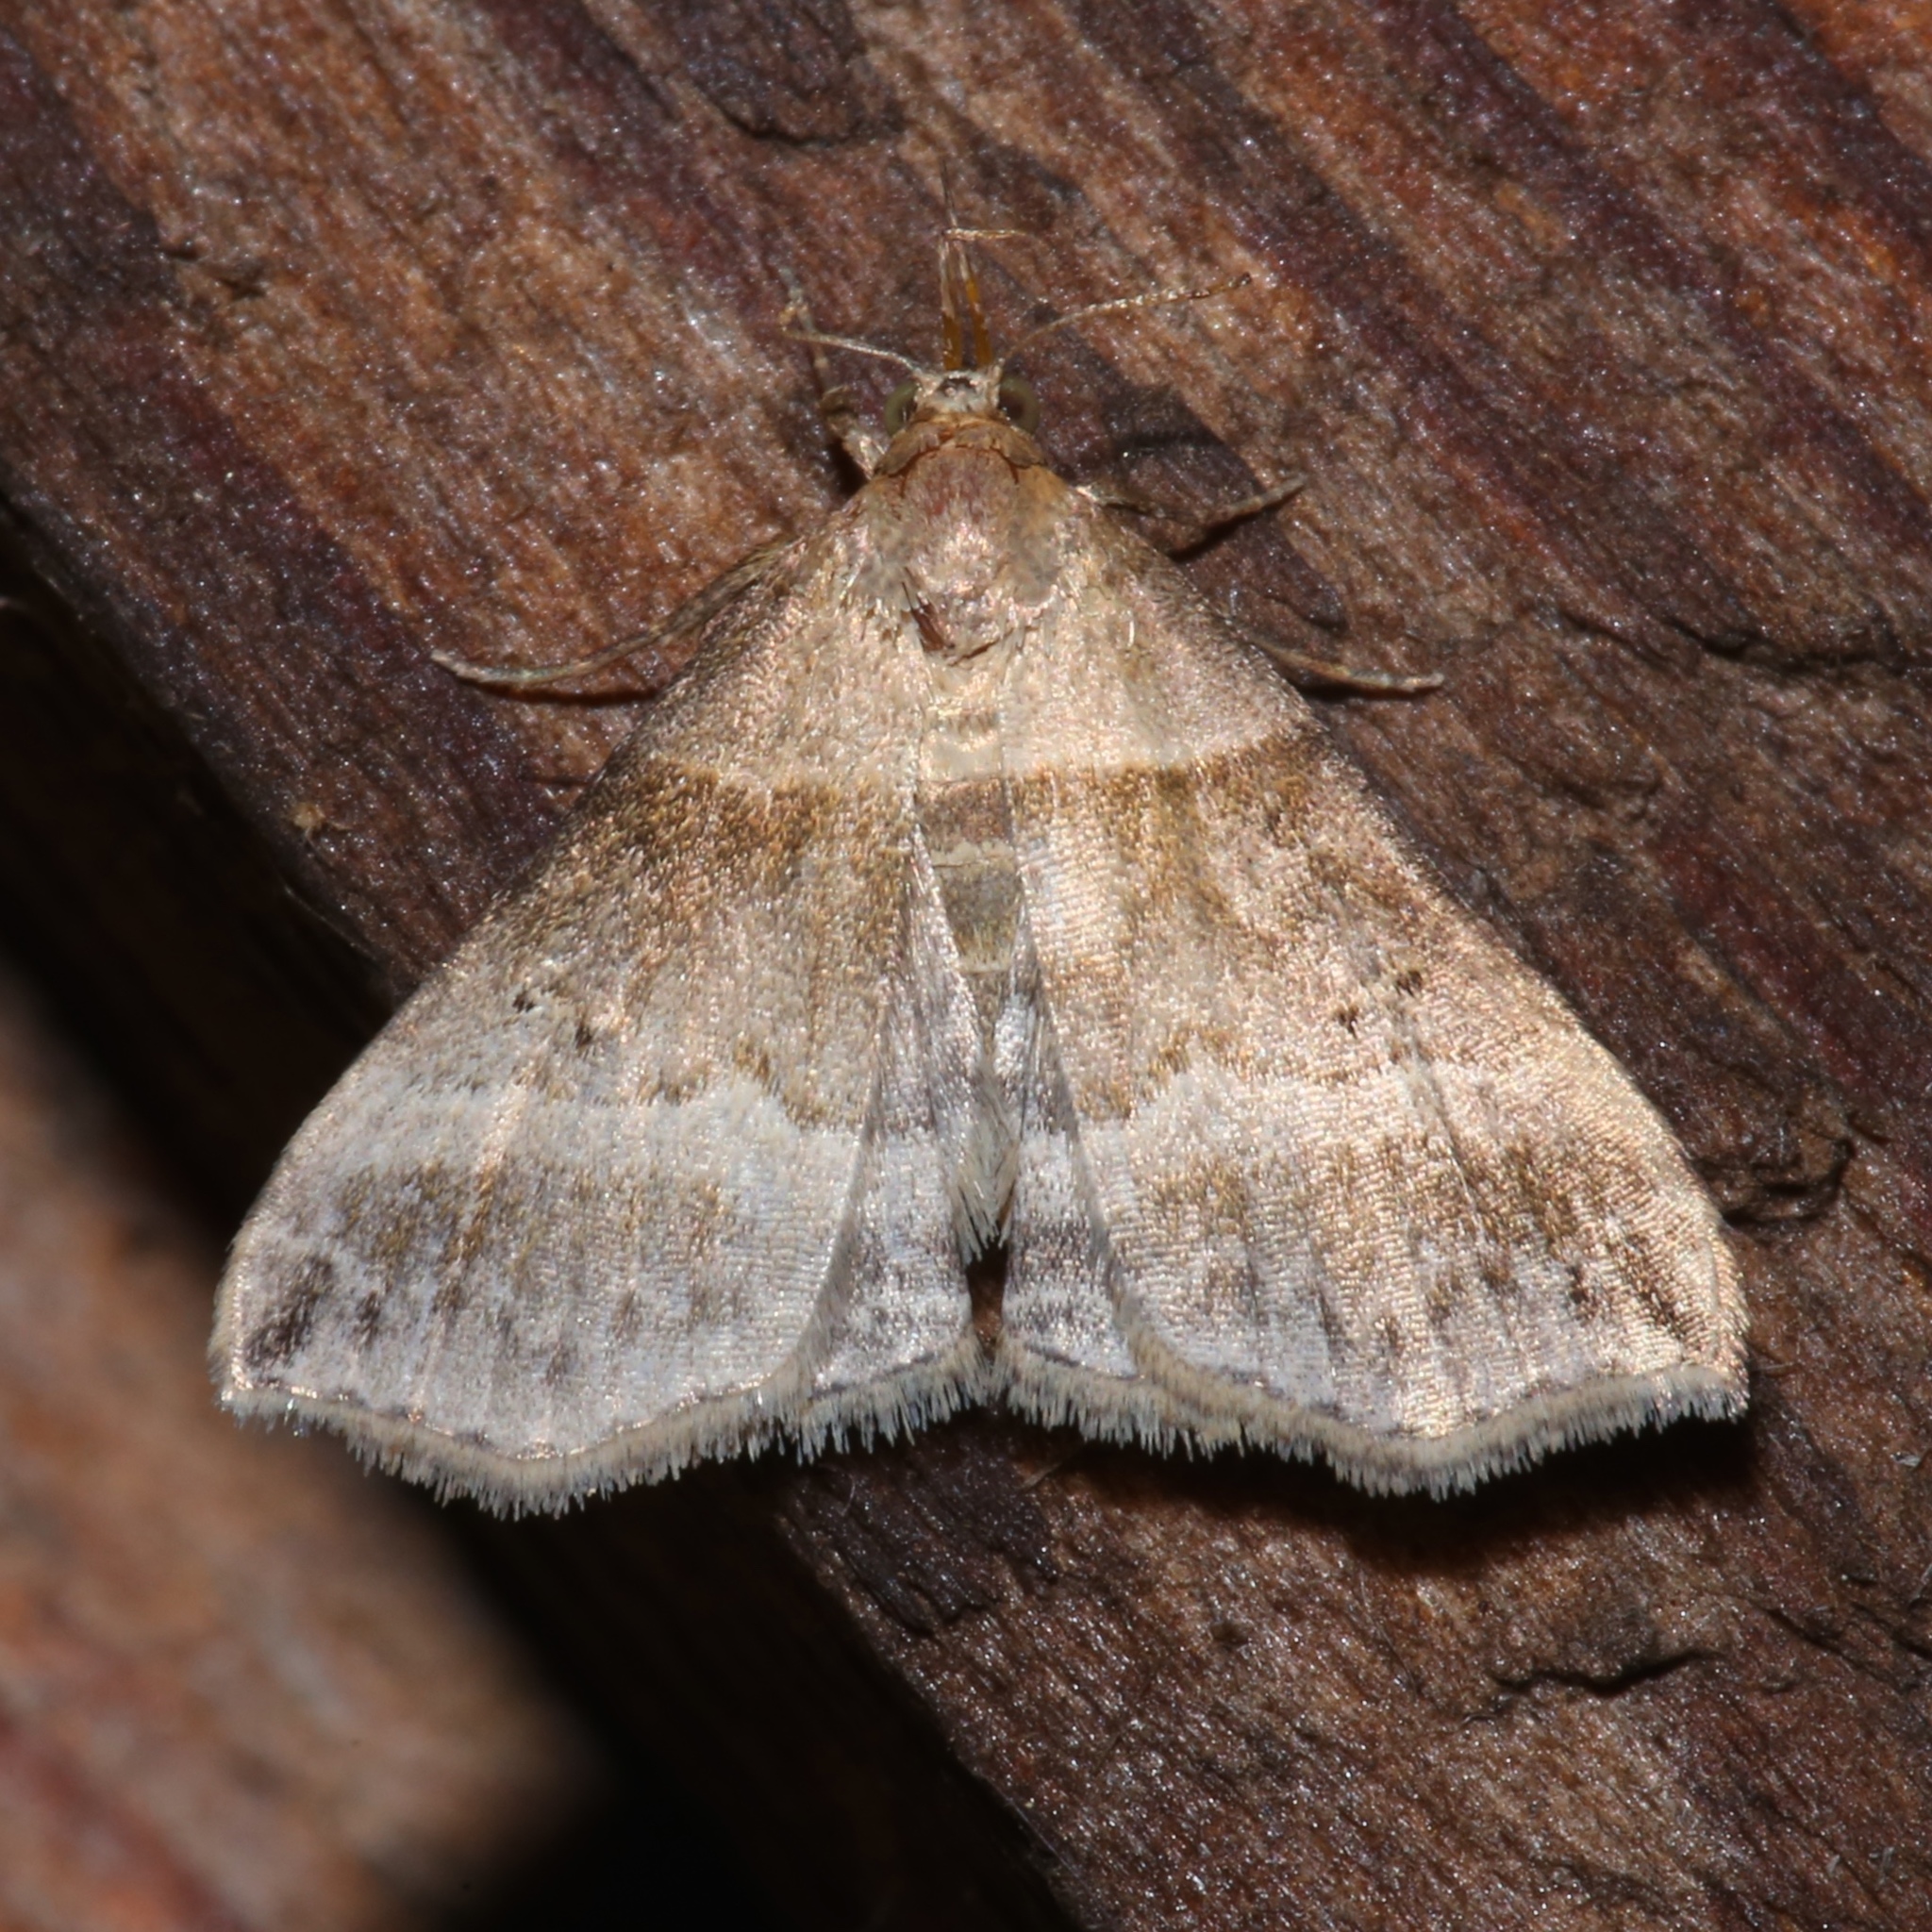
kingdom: Animalia
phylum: Arthropoda
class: Insecta
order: Lepidoptera
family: Erebidae
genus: Phaeolita
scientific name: Phaeolita pyramusalis
